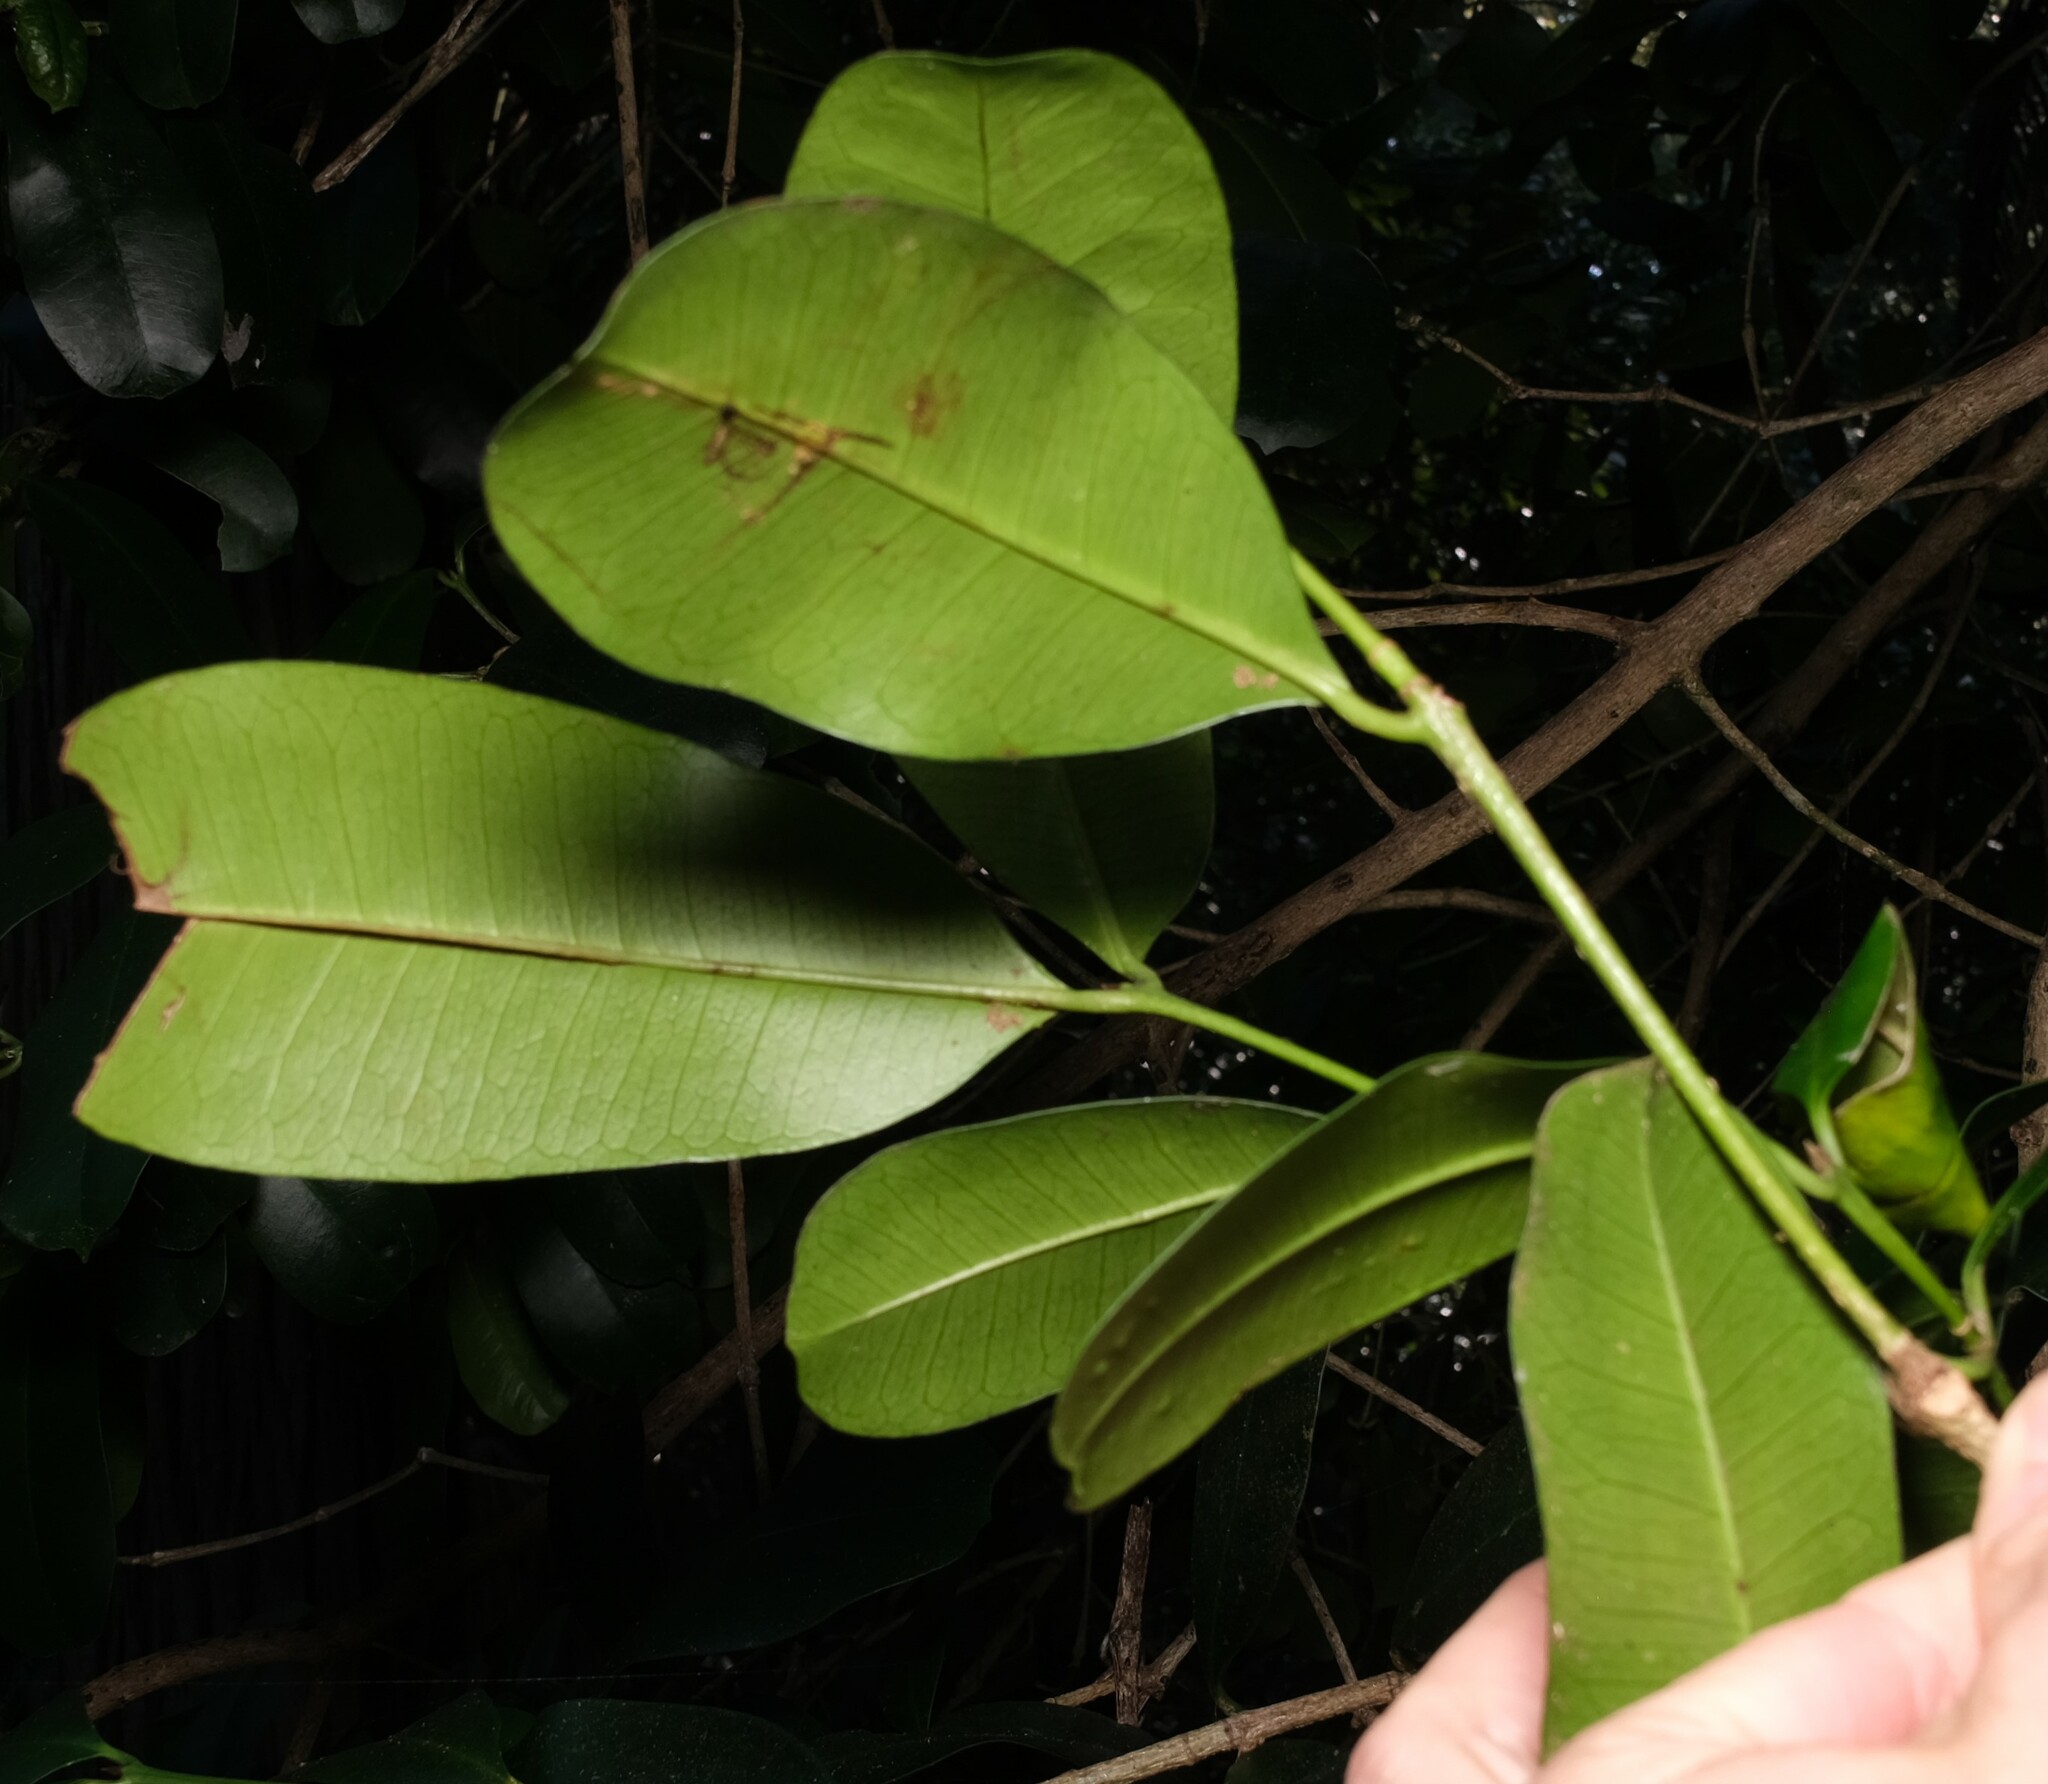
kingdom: Plantae
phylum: Tracheophyta
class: Magnoliopsida
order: Malpighiales
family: Euphorbiaceae
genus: Baloghia
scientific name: Baloghia inophylla
